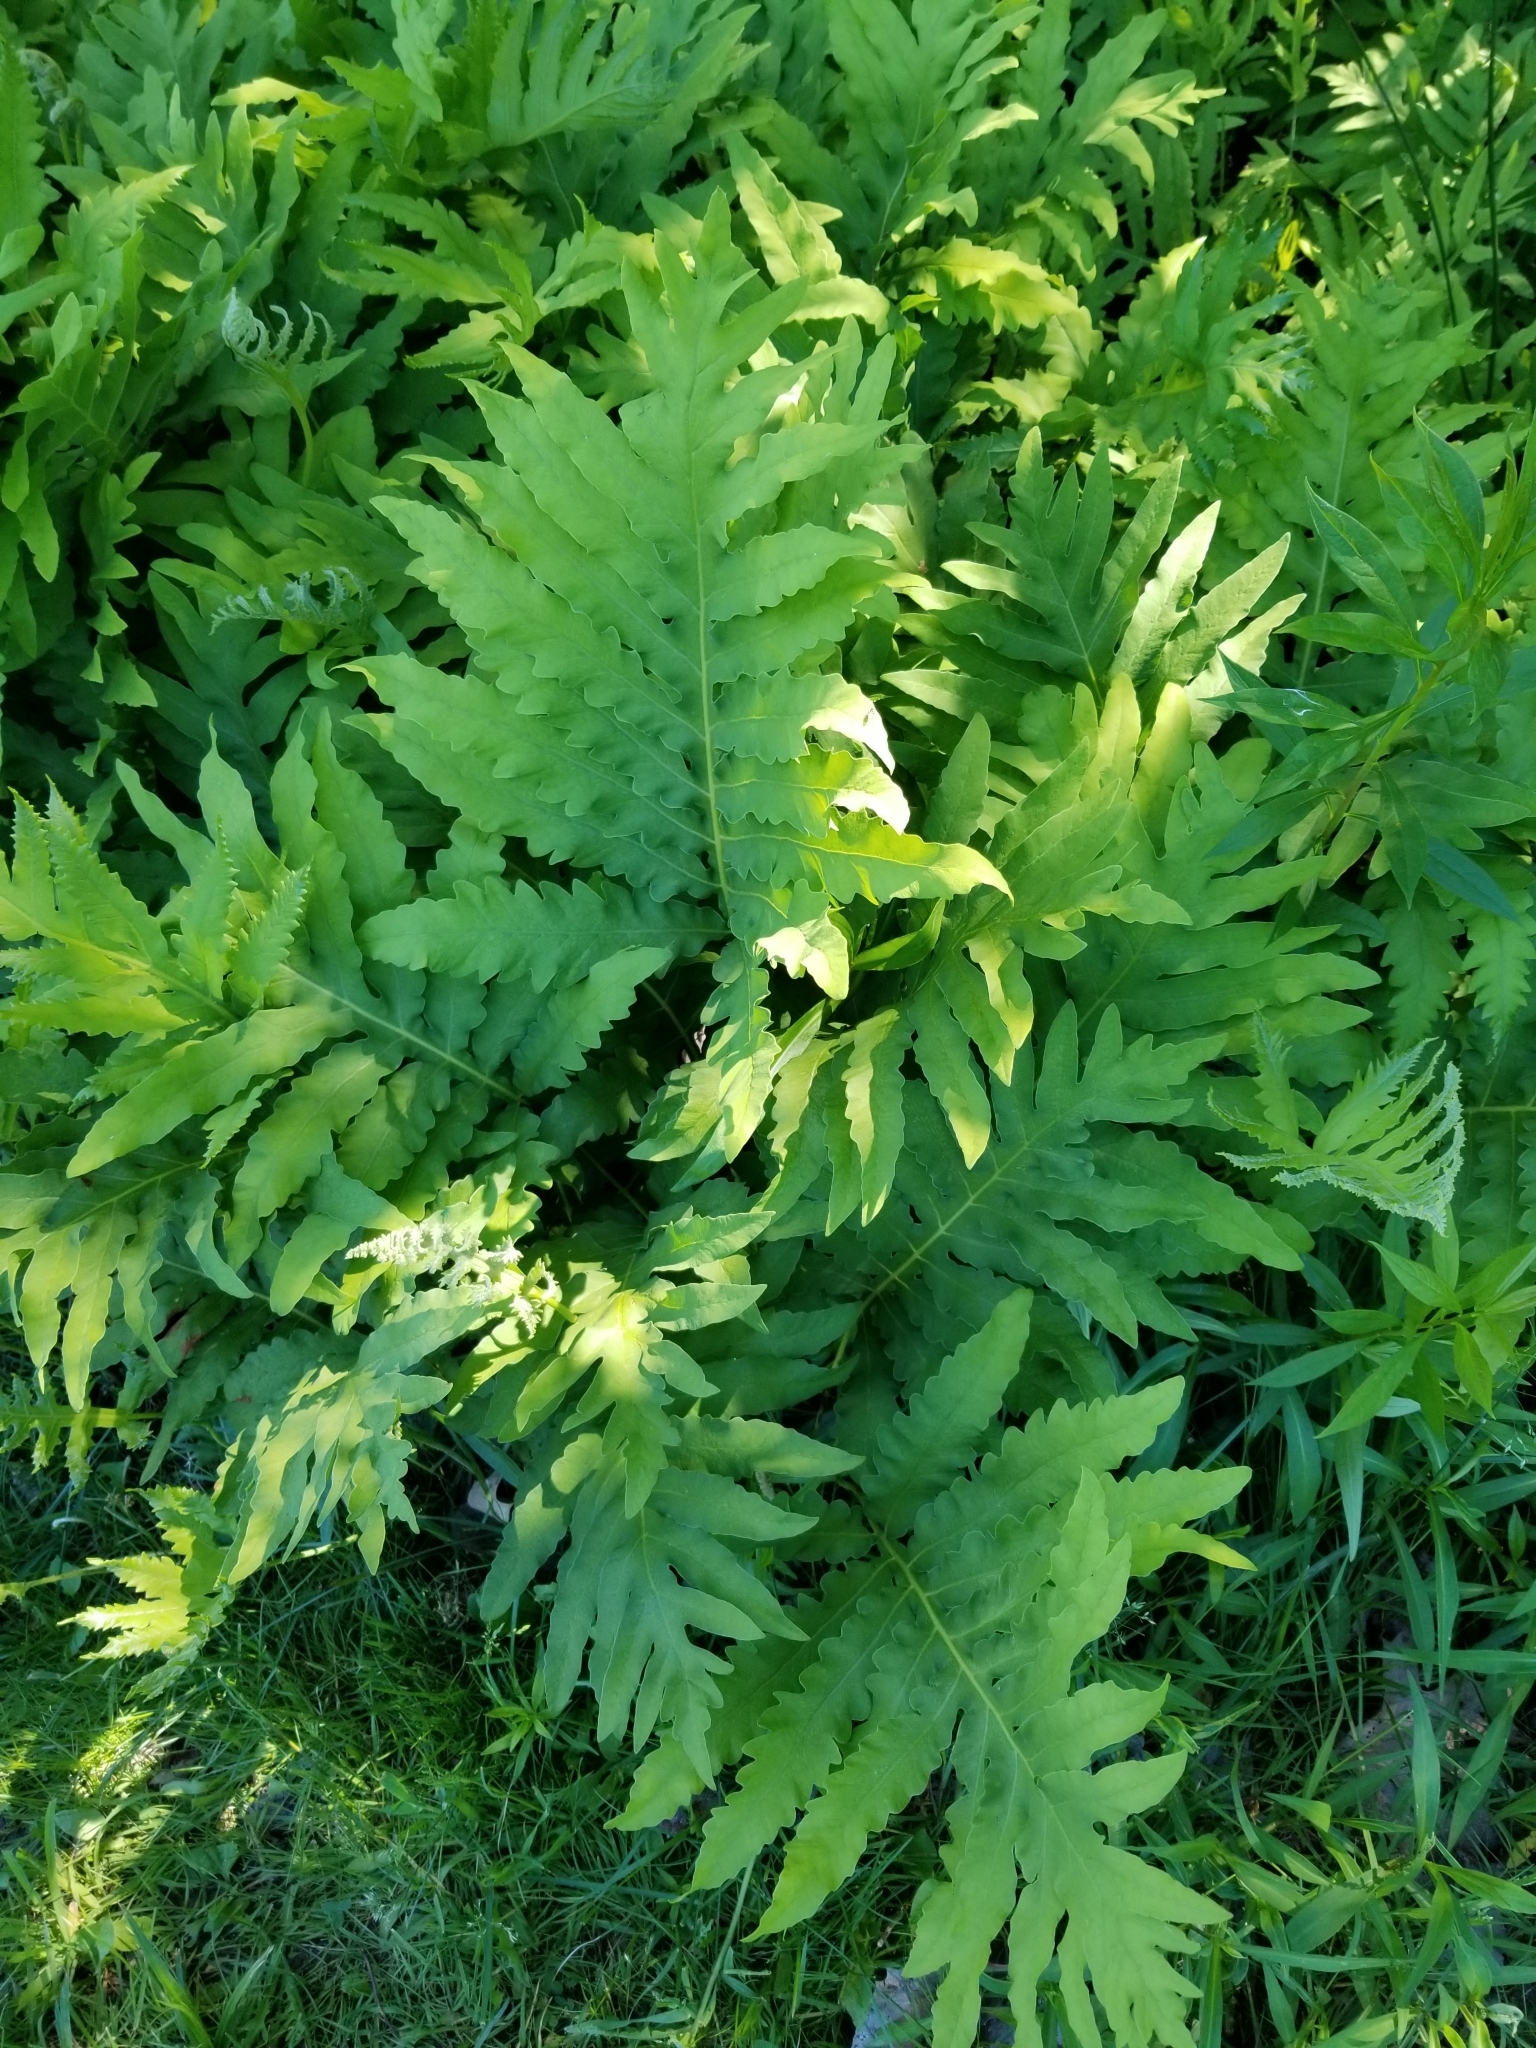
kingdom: Plantae
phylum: Tracheophyta
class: Polypodiopsida
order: Polypodiales
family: Onocleaceae
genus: Onoclea
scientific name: Onoclea sensibilis
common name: Sensitive fern
